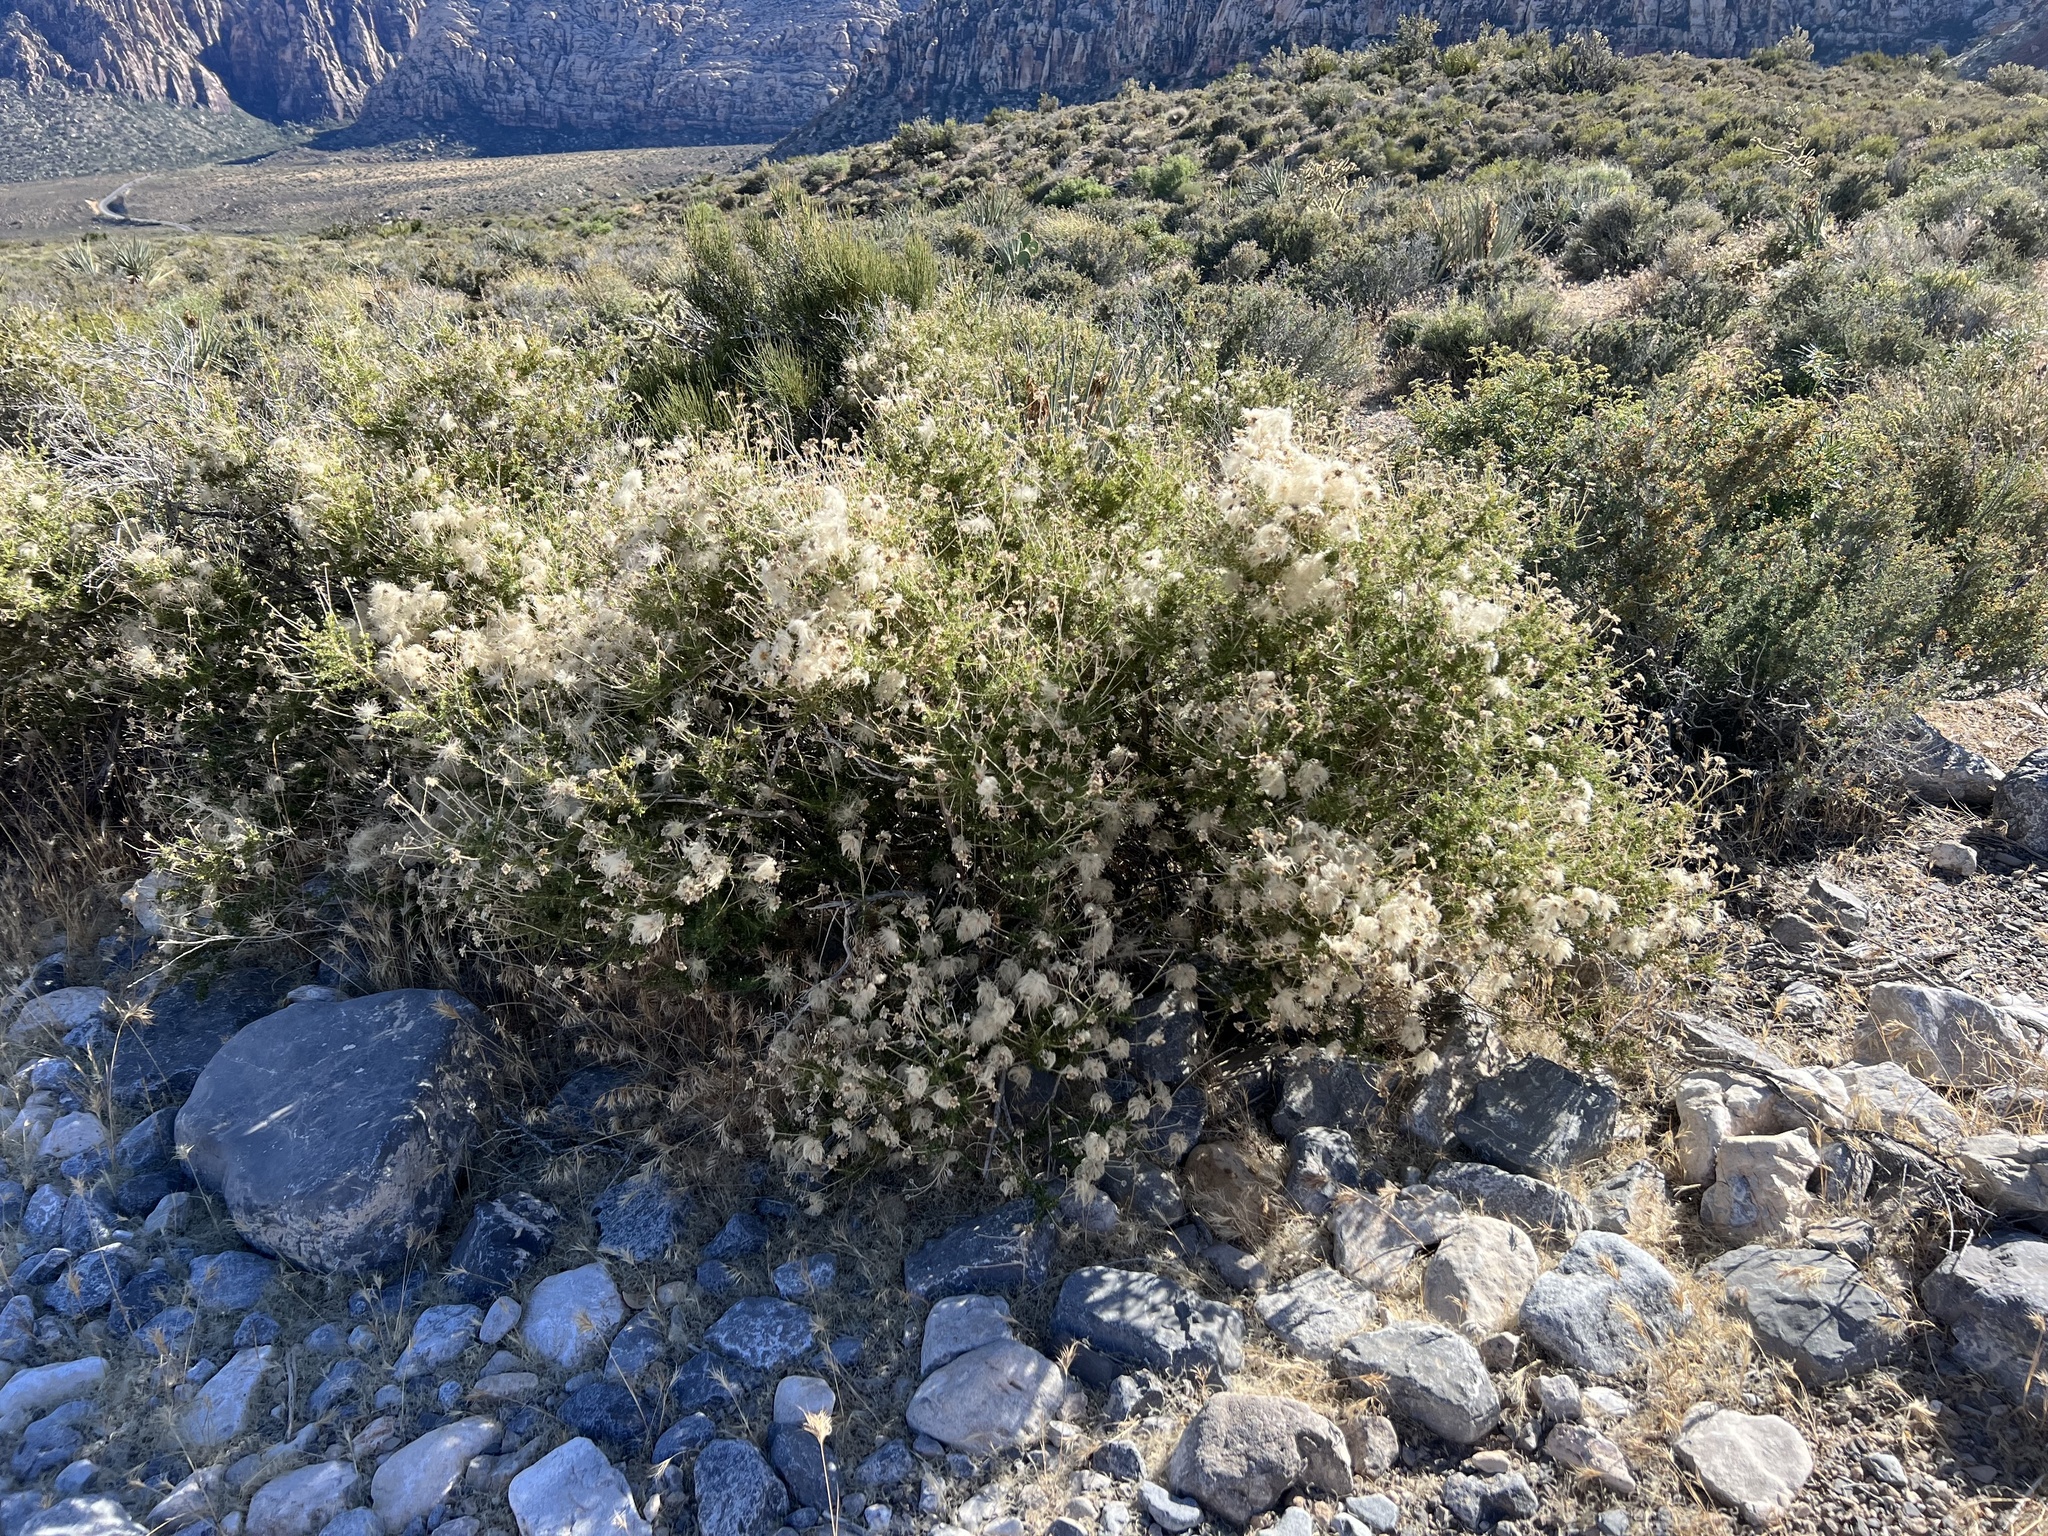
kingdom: Plantae
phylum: Tracheophyta
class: Magnoliopsida
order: Rosales
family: Rosaceae
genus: Fallugia
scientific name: Fallugia paradoxa
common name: Apache-plume
